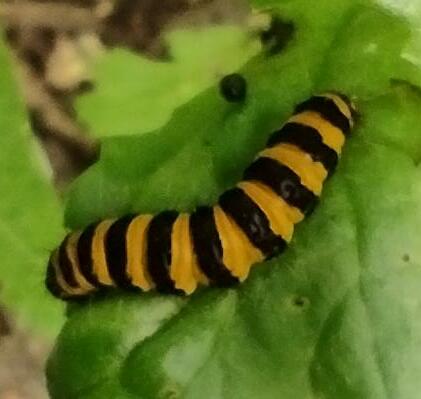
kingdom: Animalia
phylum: Arthropoda
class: Insecta
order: Lepidoptera
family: Erebidae
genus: Tyria
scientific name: Tyria jacobaeae
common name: Cinnabar
